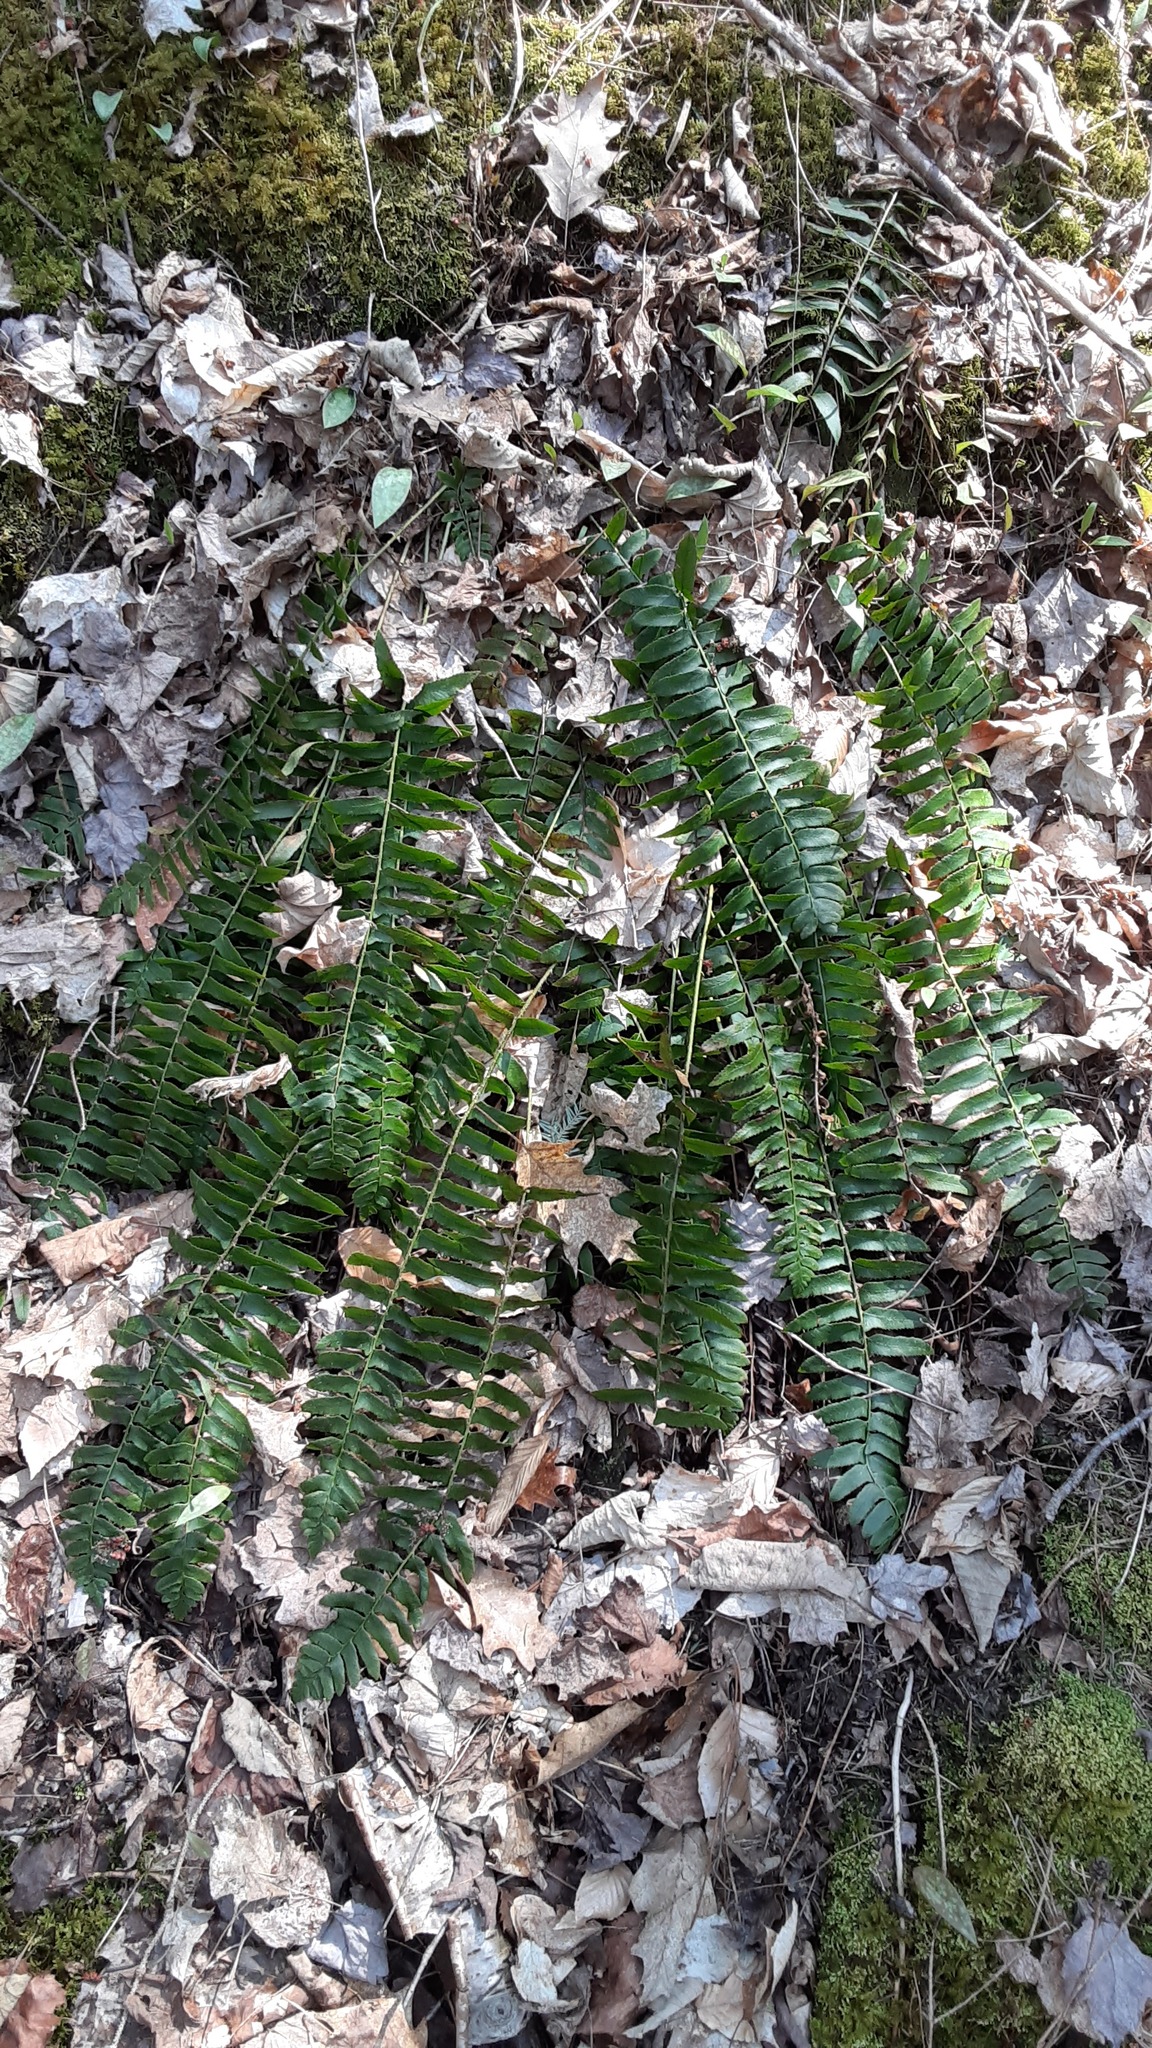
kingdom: Plantae
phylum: Tracheophyta
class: Polypodiopsida
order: Polypodiales
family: Dryopteridaceae
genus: Polystichum
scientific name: Polystichum acrostichoides
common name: Christmas fern
